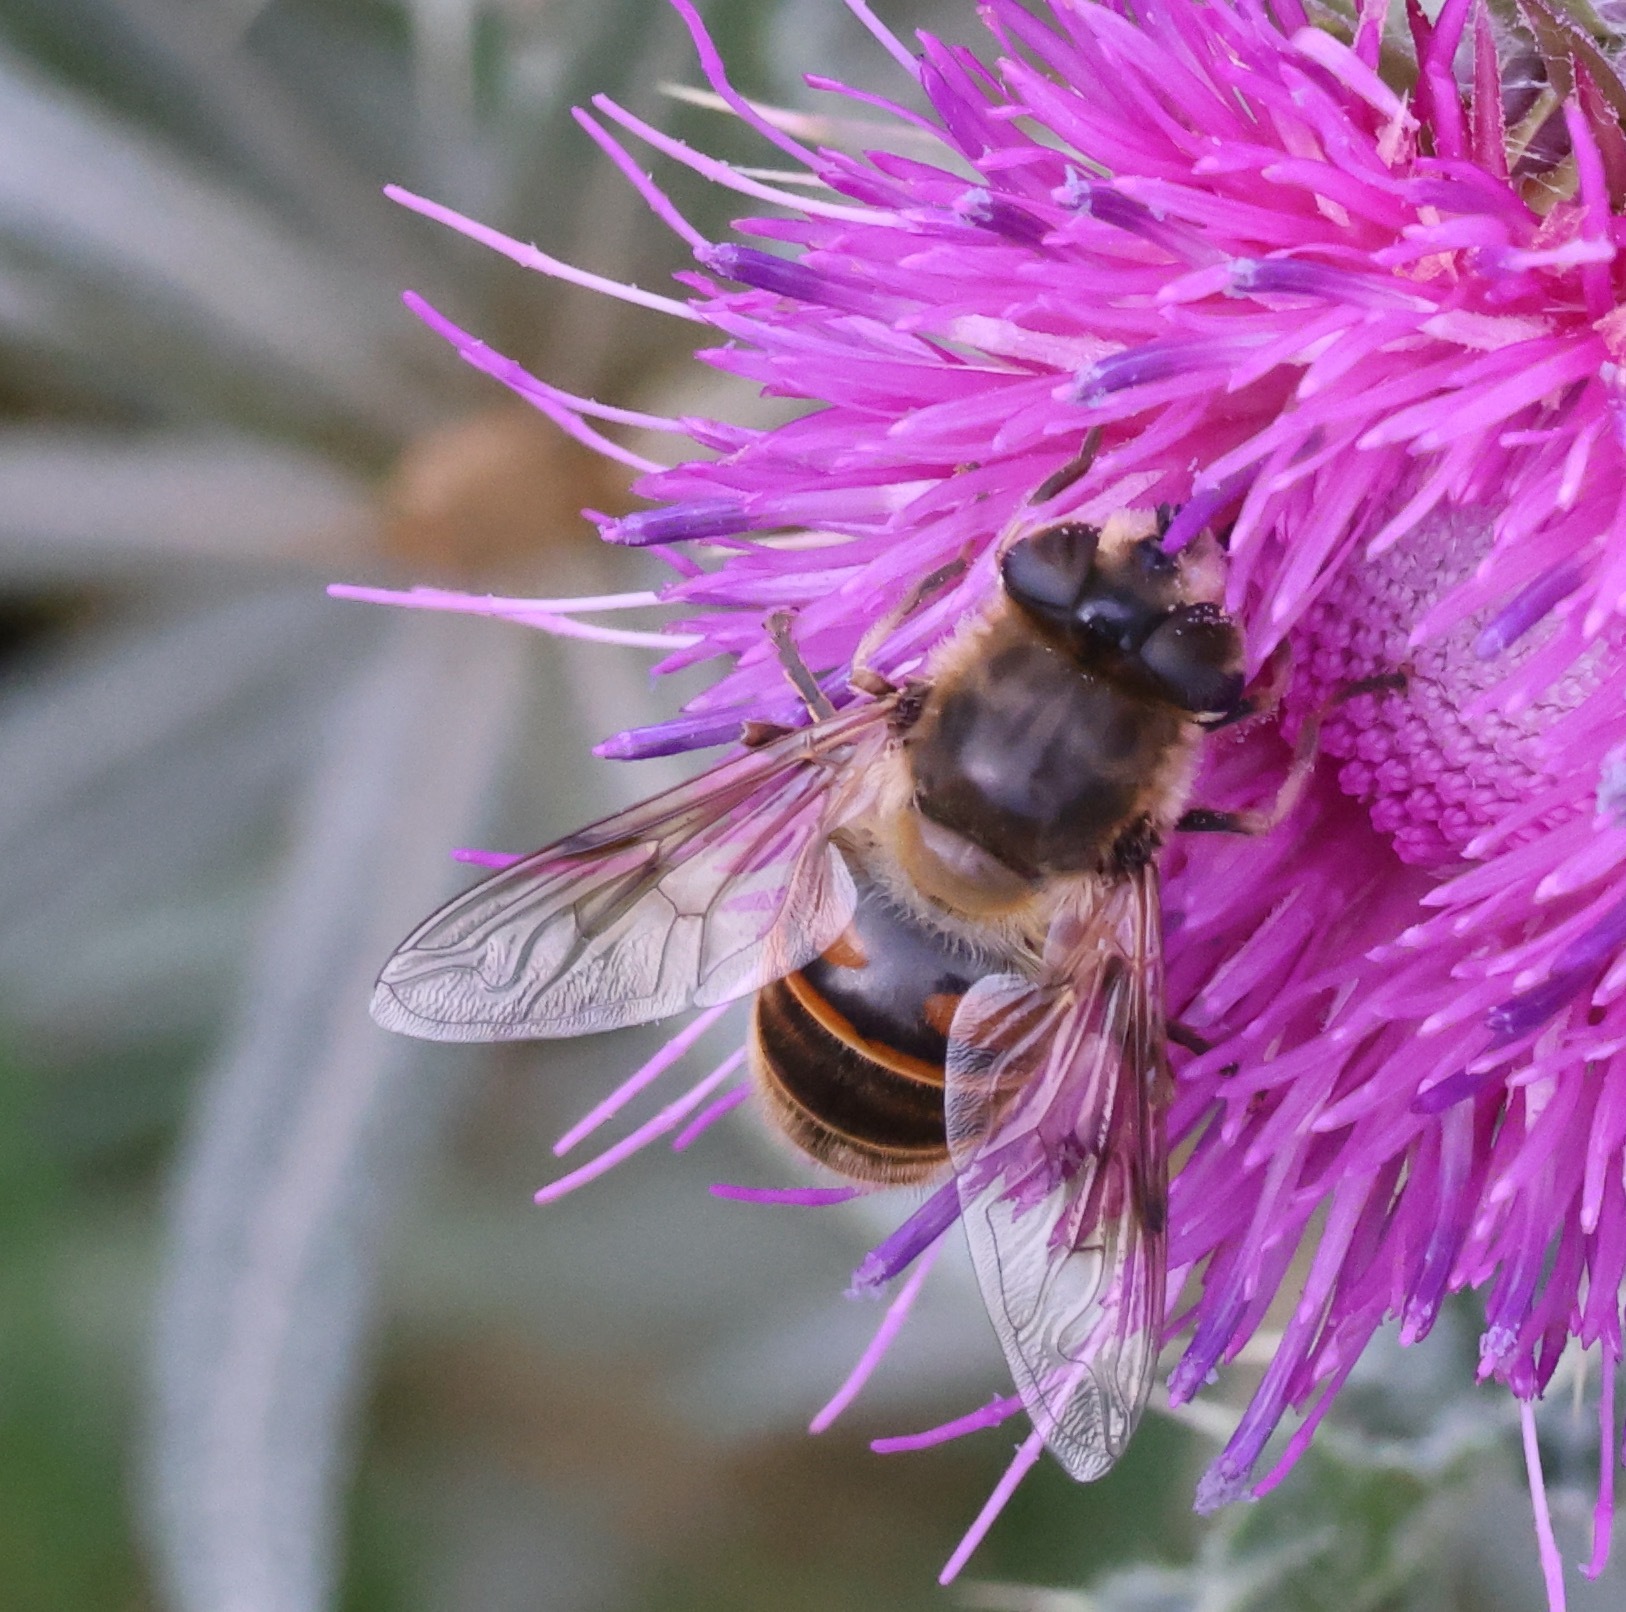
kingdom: Animalia
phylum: Arthropoda
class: Insecta
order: Diptera
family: Syrphidae
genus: Eristalis
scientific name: Eristalis tenax
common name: Drone fly
